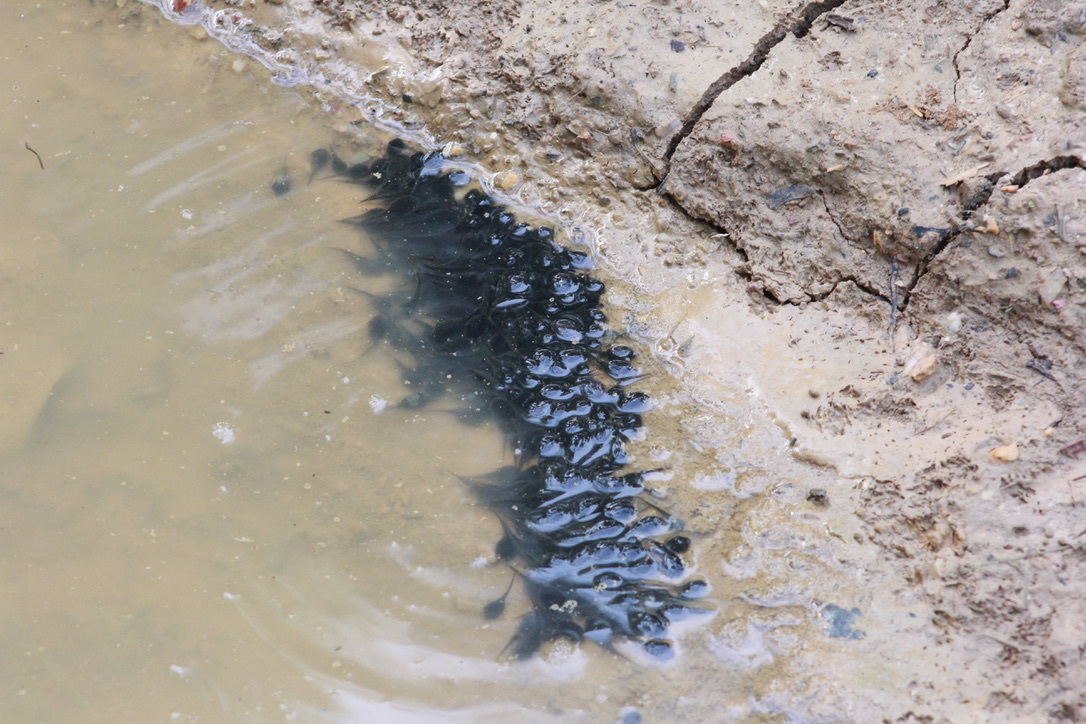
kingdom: Animalia
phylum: Chordata
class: Amphibia
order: Anura
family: Bufonidae
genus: Rhinella
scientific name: Rhinella marina
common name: Cane toad
